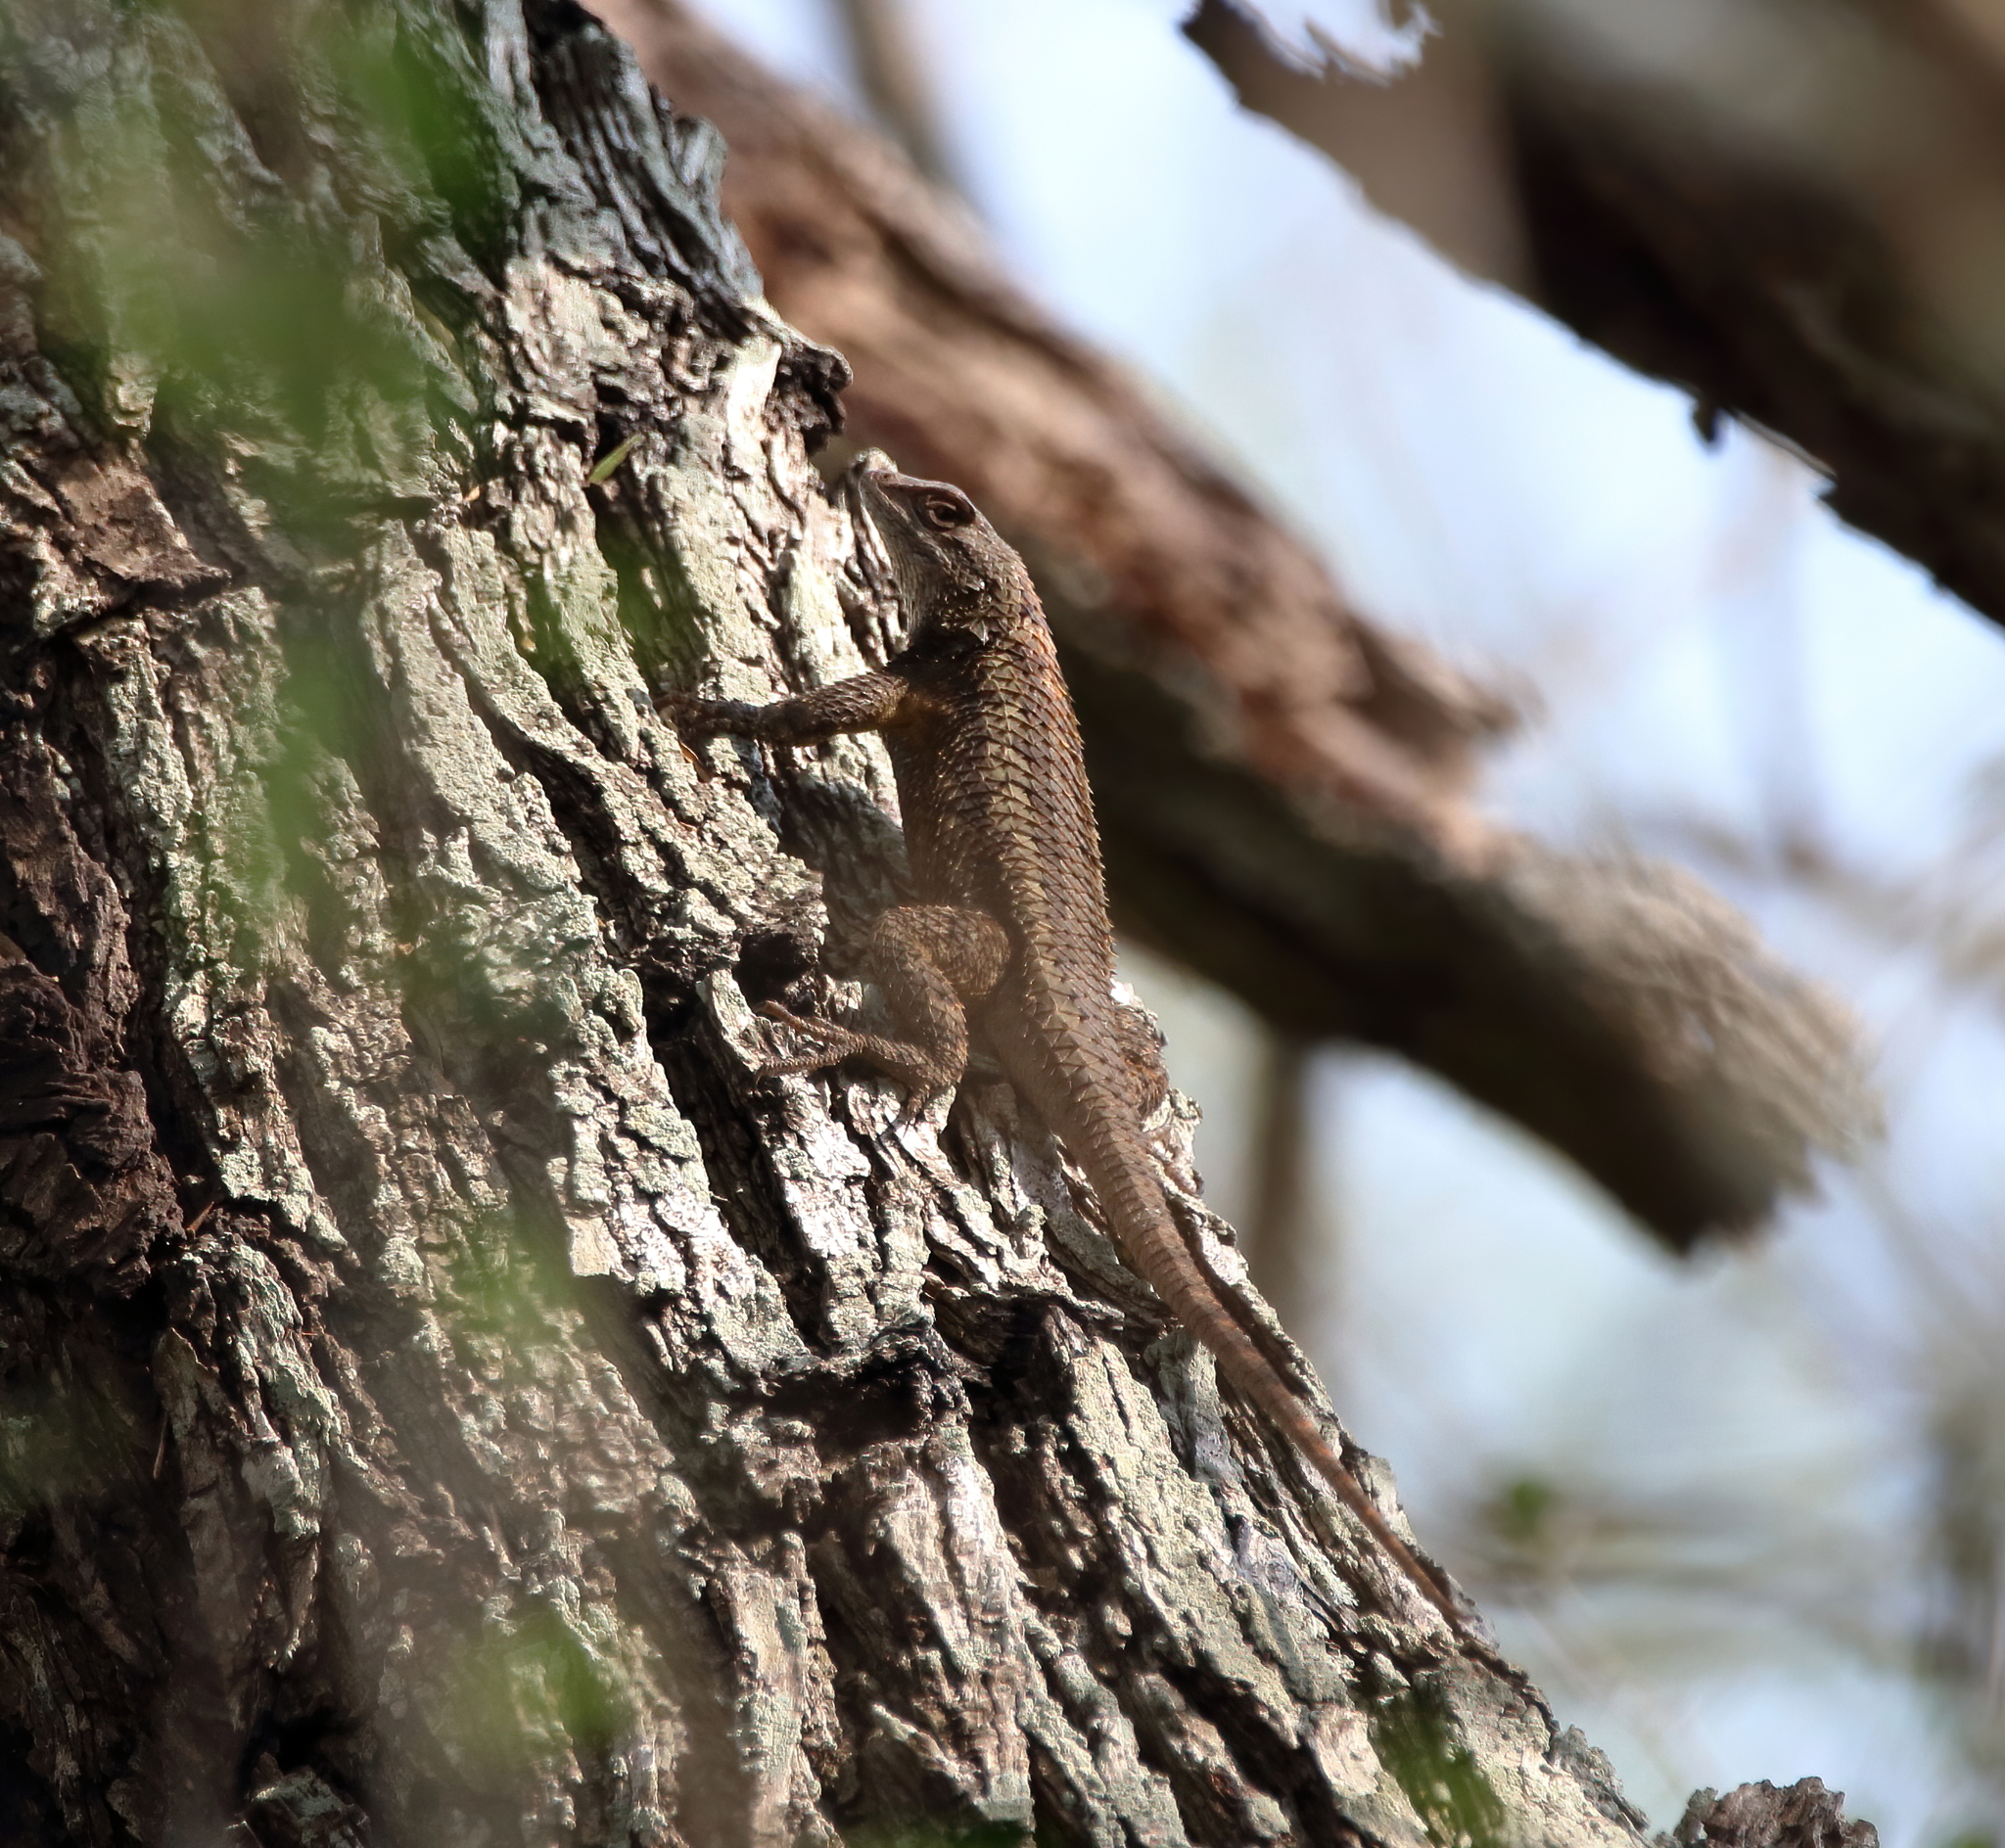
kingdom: Animalia
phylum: Chordata
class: Squamata
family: Phrynosomatidae
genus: Sceloporus
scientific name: Sceloporus olivaceus
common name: Texas spiny lizard
